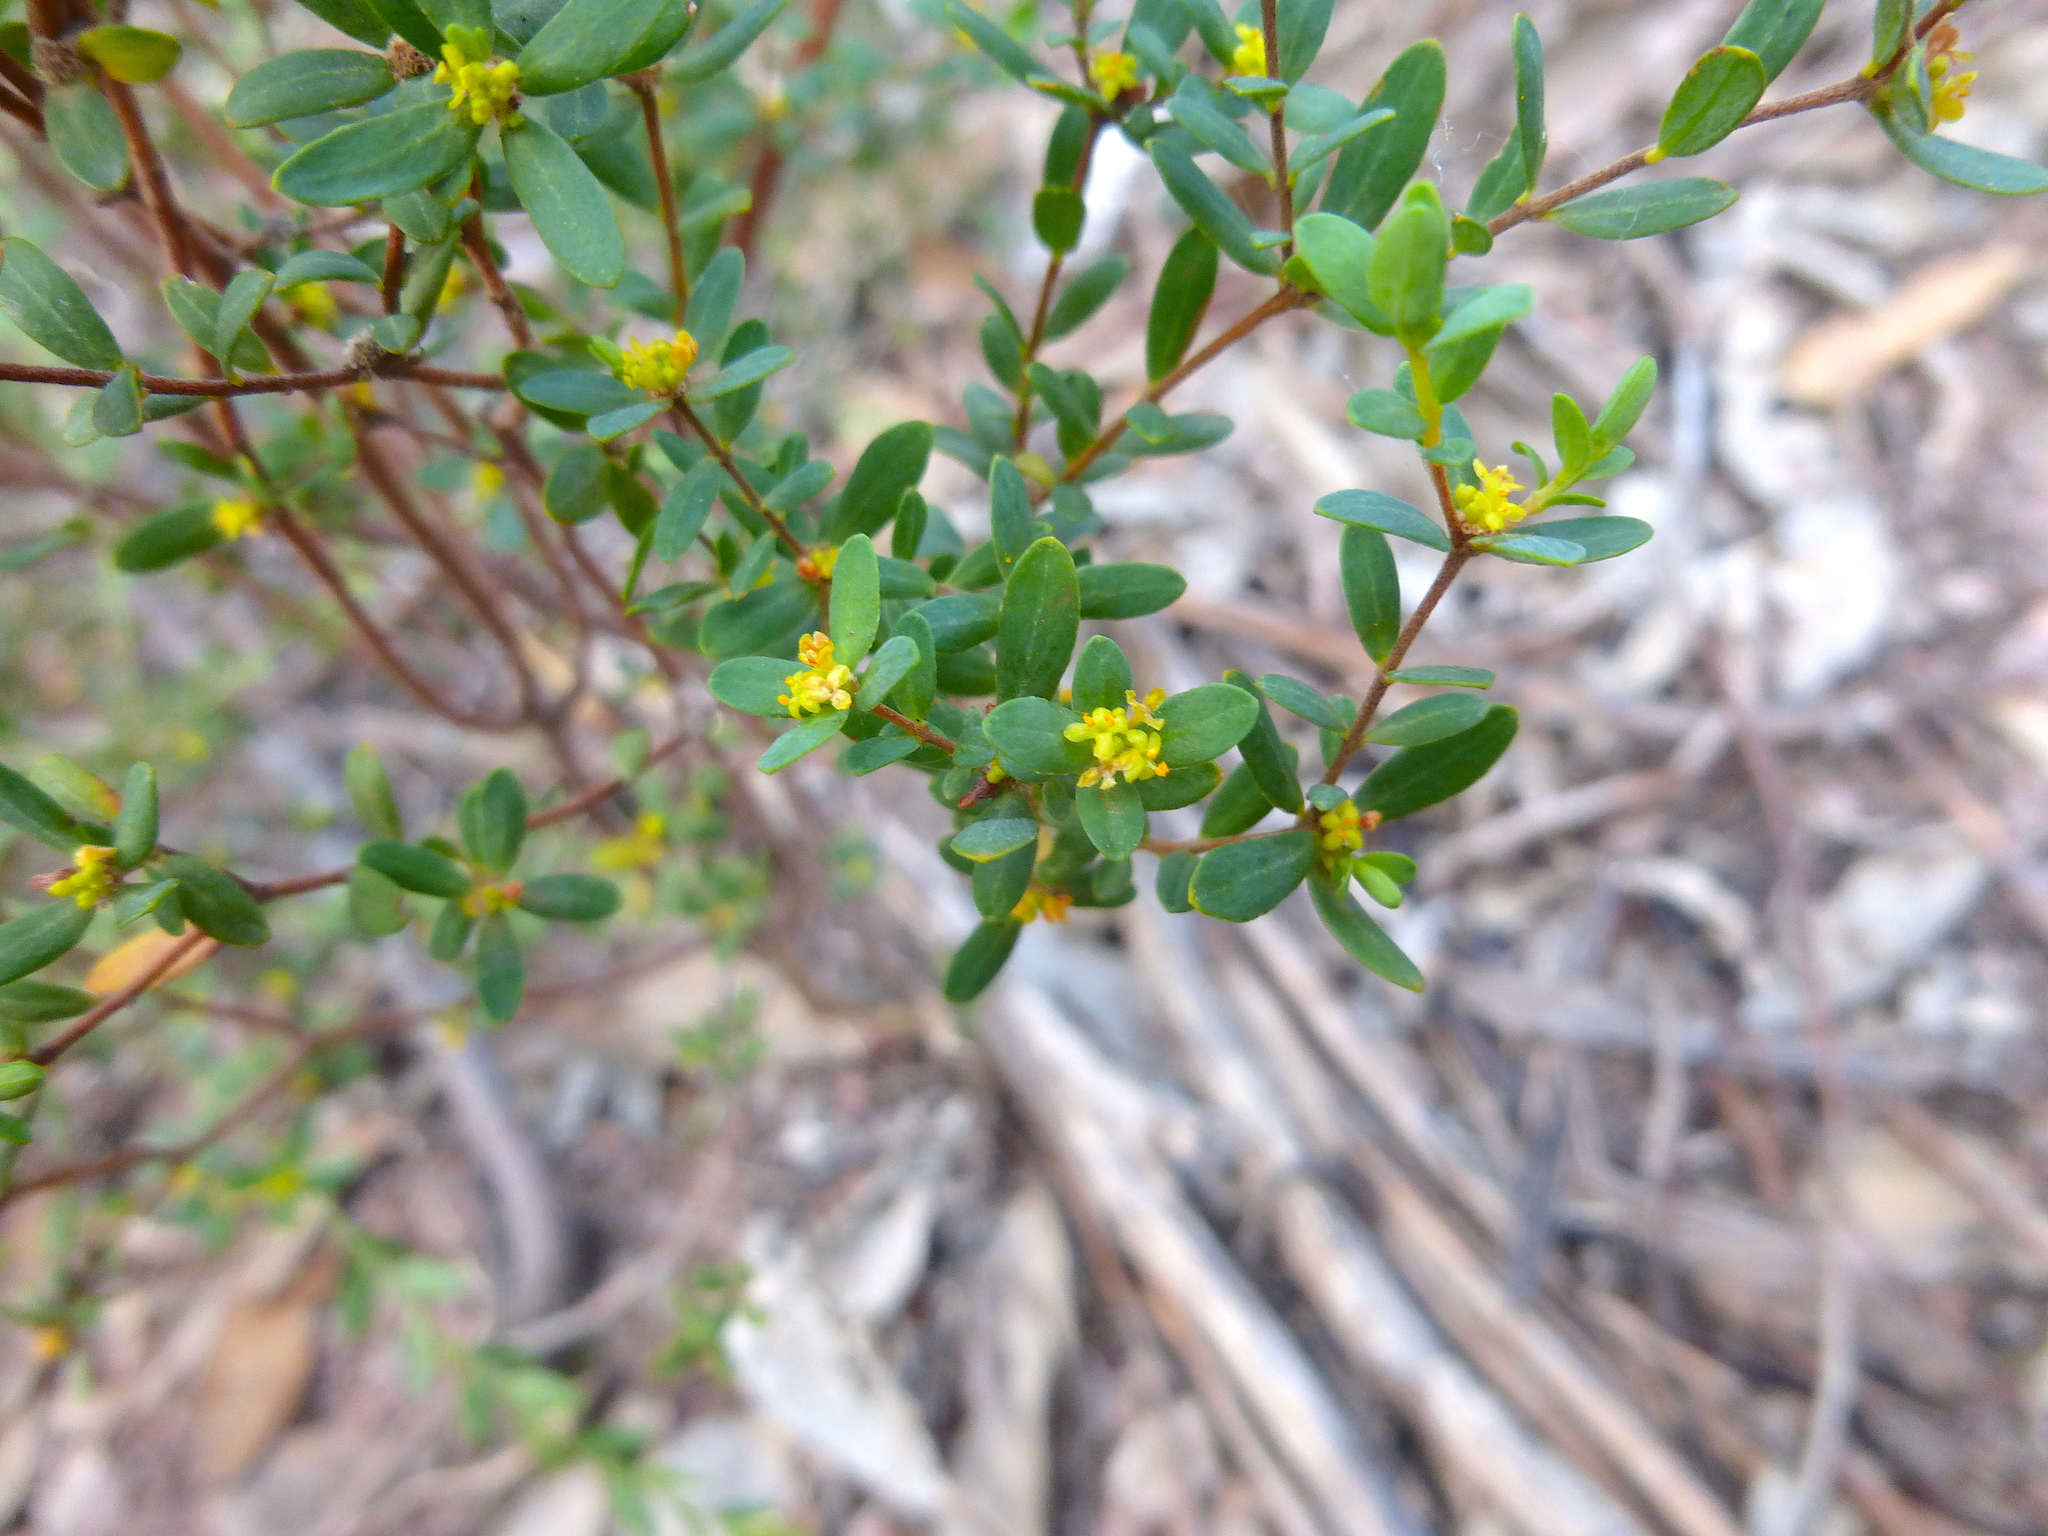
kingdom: Plantae
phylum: Tracheophyta
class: Magnoliopsida
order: Malvales
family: Thymelaeaceae
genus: Pimelea
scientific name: Pimelea hewardiana
